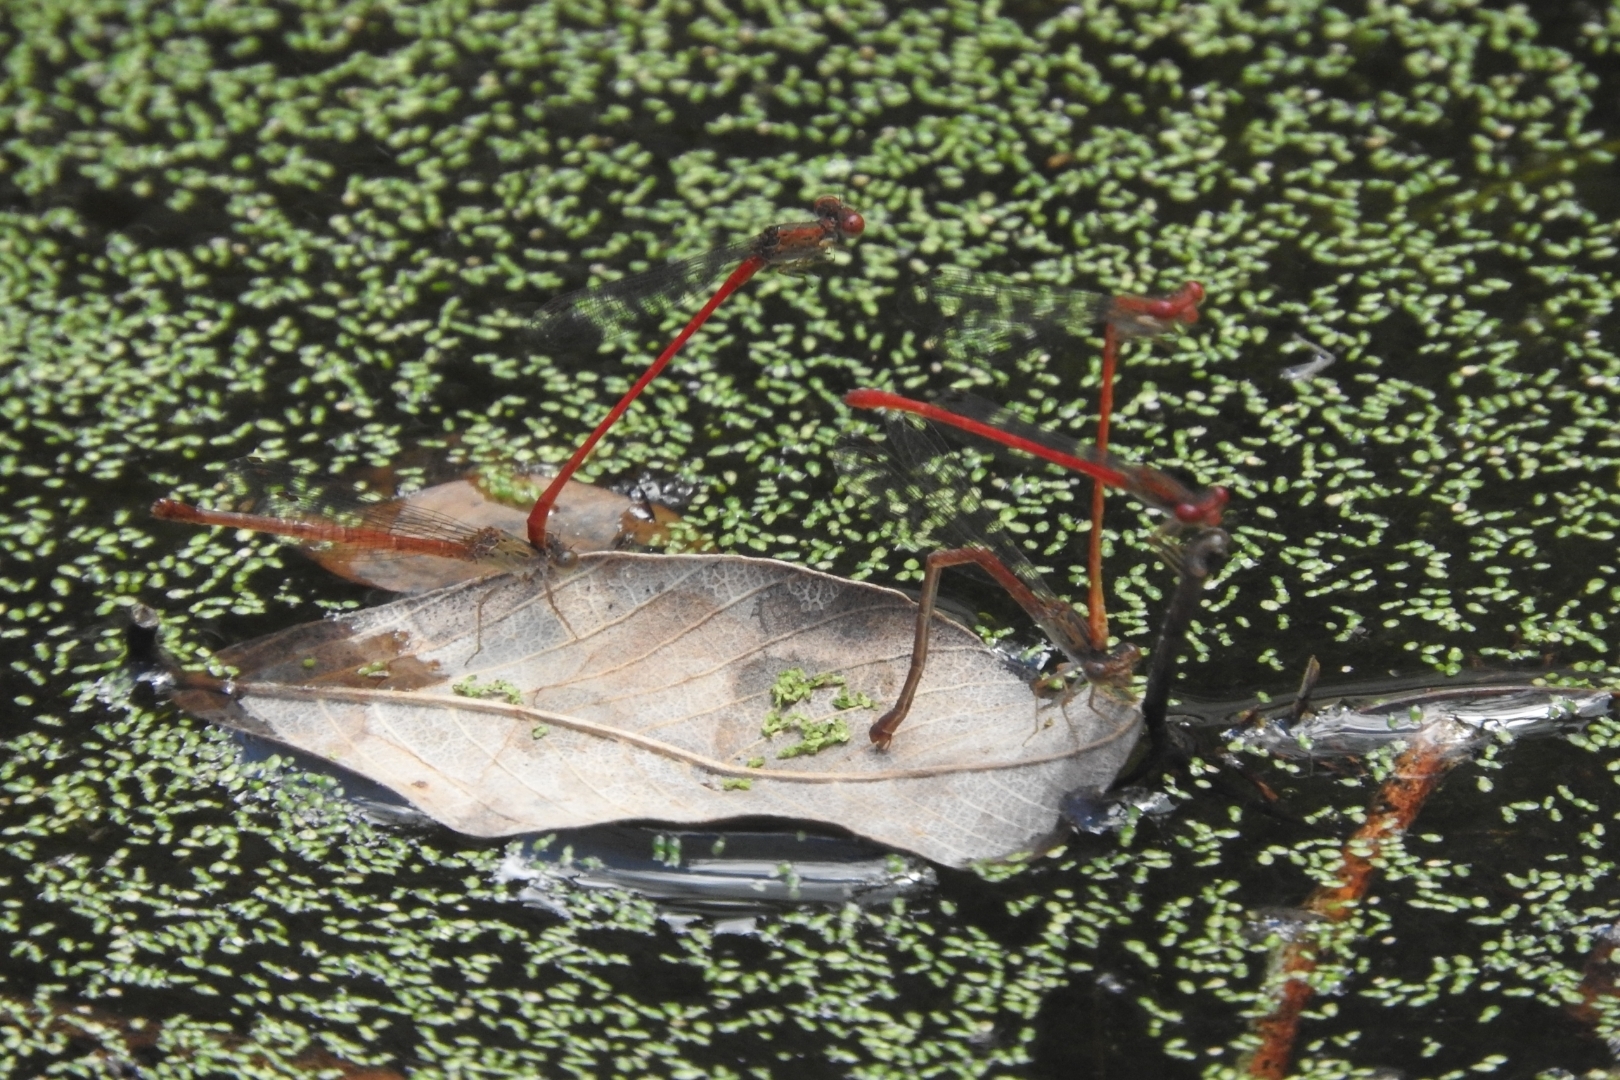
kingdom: Animalia
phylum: Arthropoda
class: Insecta
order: Odonata
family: Coenagrionidae
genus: Telebasis
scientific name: Telebasis salva
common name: Desert firetail
